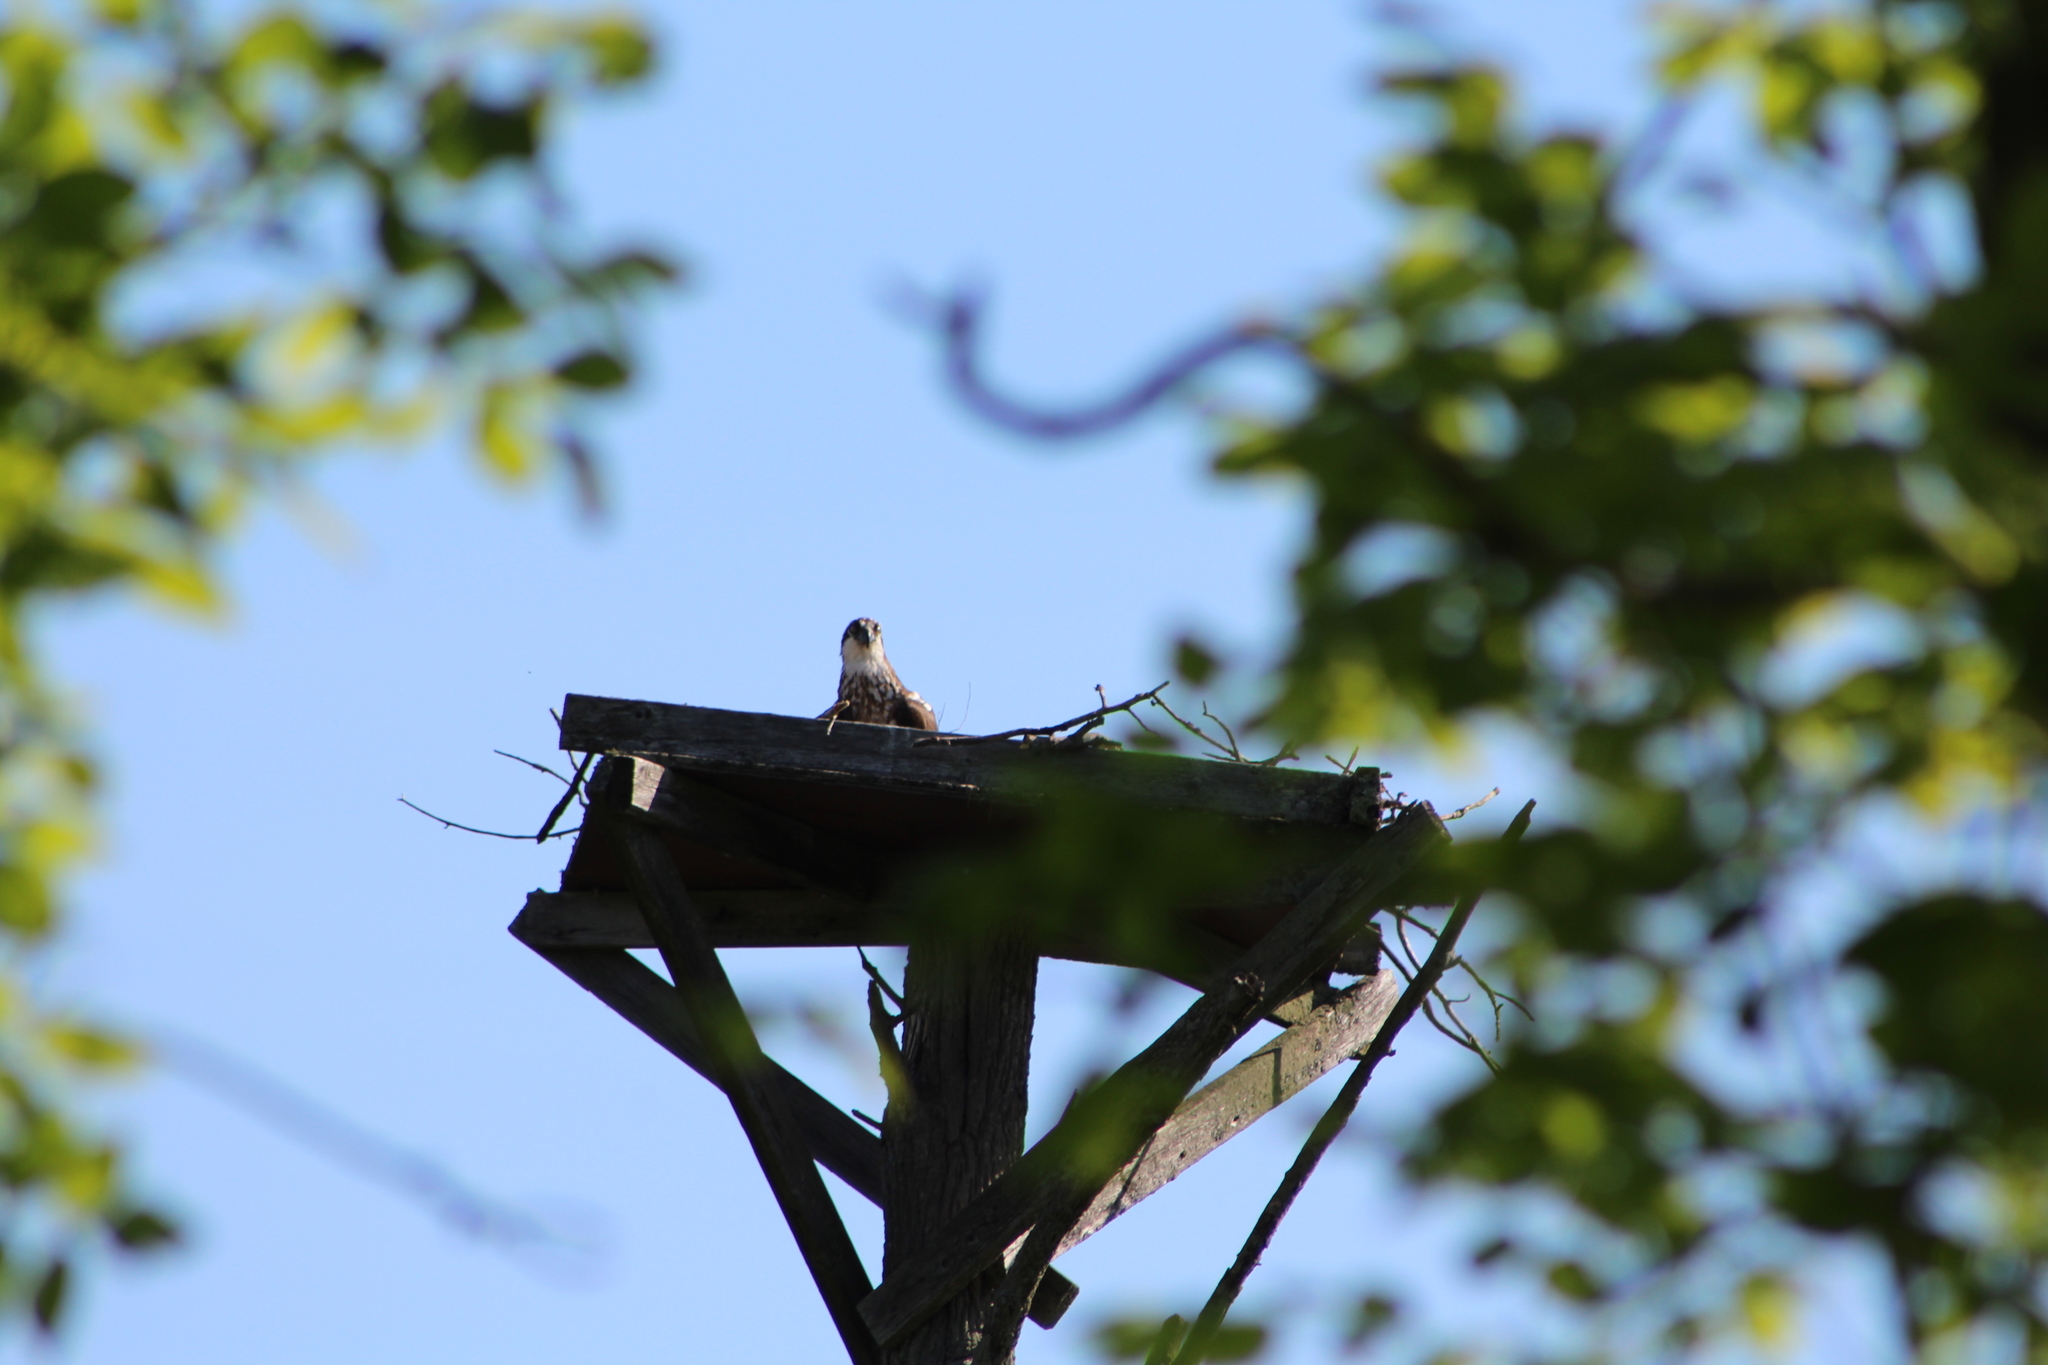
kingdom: Animalia
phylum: Chordata
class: Aves
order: Accipitriformes
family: Pandionidae
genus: Pandion
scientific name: Pandion haliaetus
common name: Osprey
